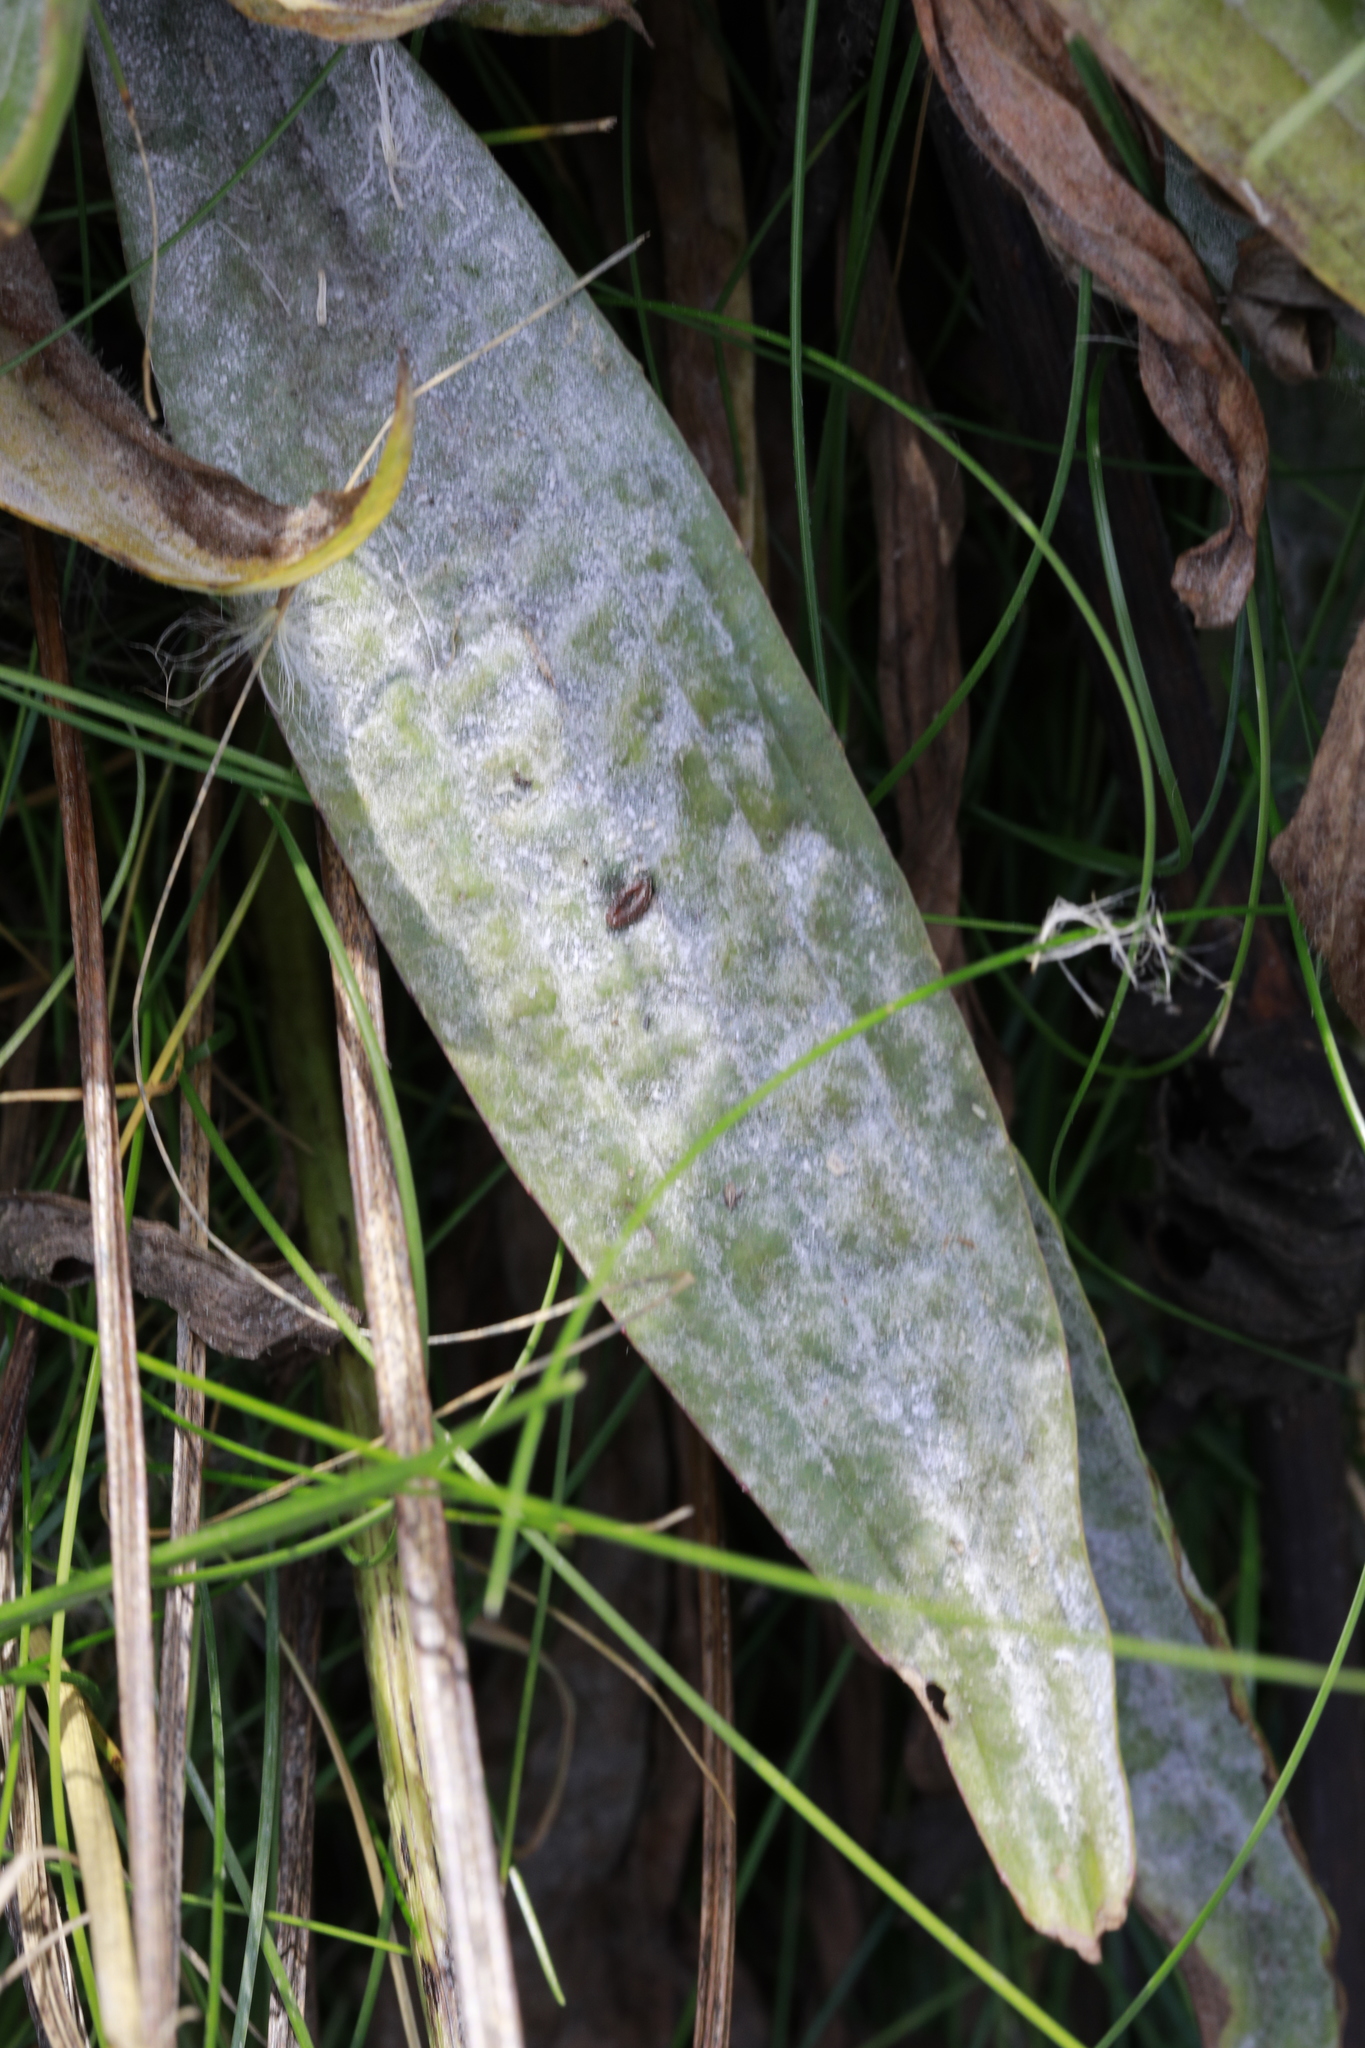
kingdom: Fungi
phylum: Ascomycota
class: Leotiomycetes
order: Helotiales
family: Erysiphaceae
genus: Golovinomyces
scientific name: Golovinomyces sordidus
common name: Plantain mildew
